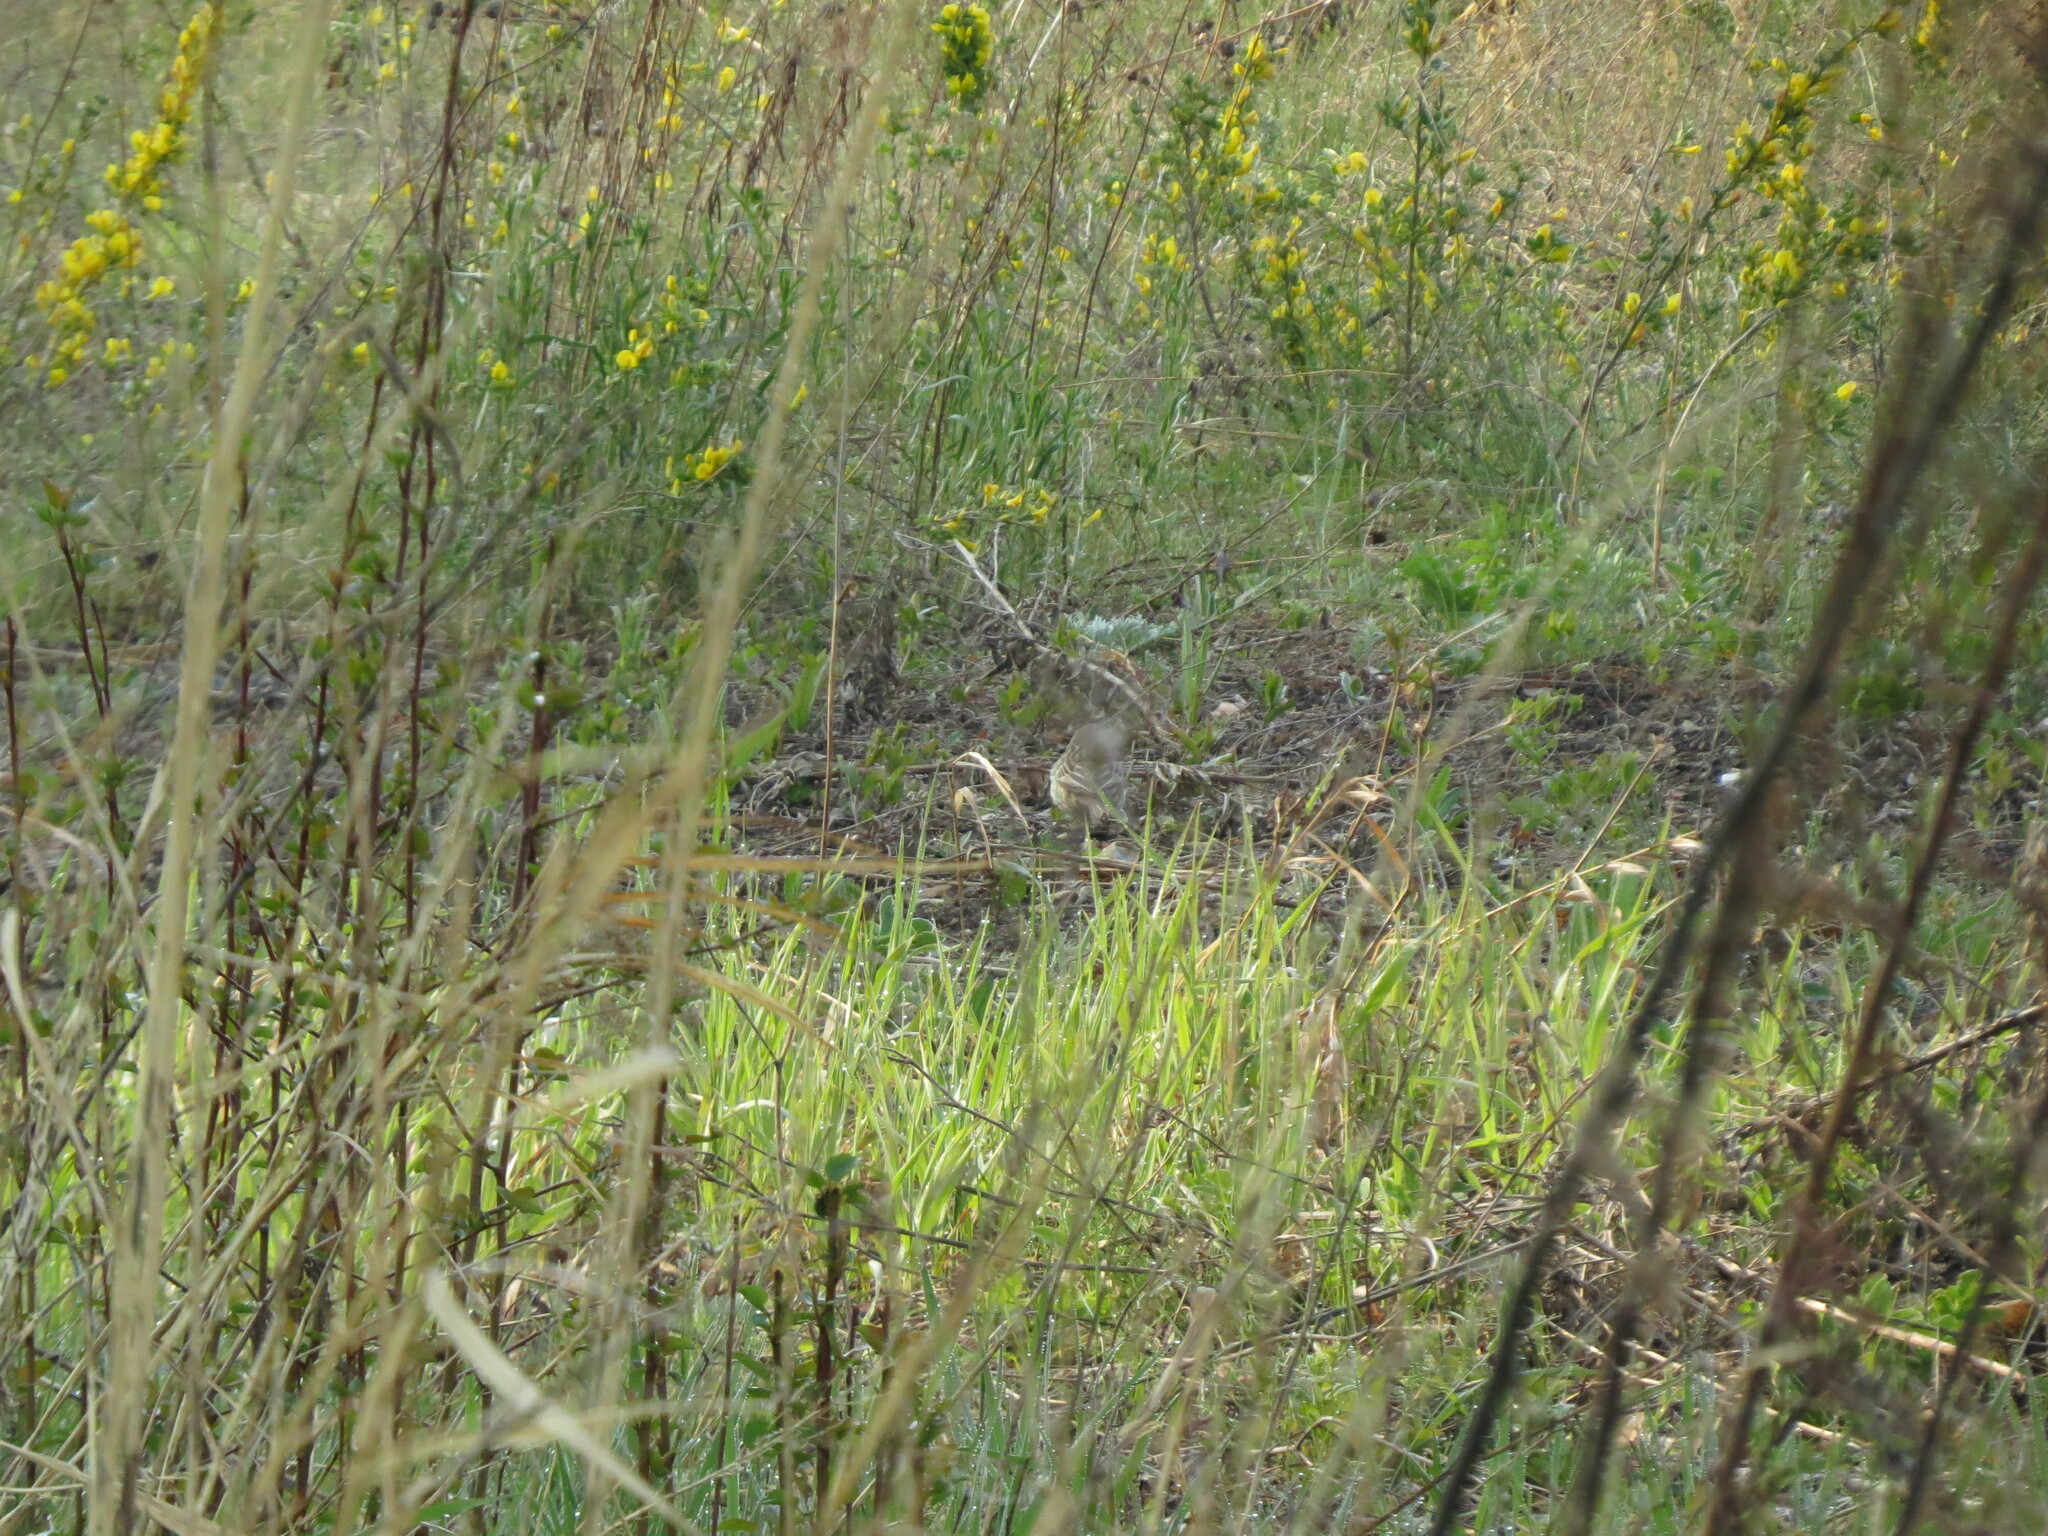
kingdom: Animalia
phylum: Chordata
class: Aves
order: Passeriformes
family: Motacillidae
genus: Anthus
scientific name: Anthus trivialis
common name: Tree pipit
